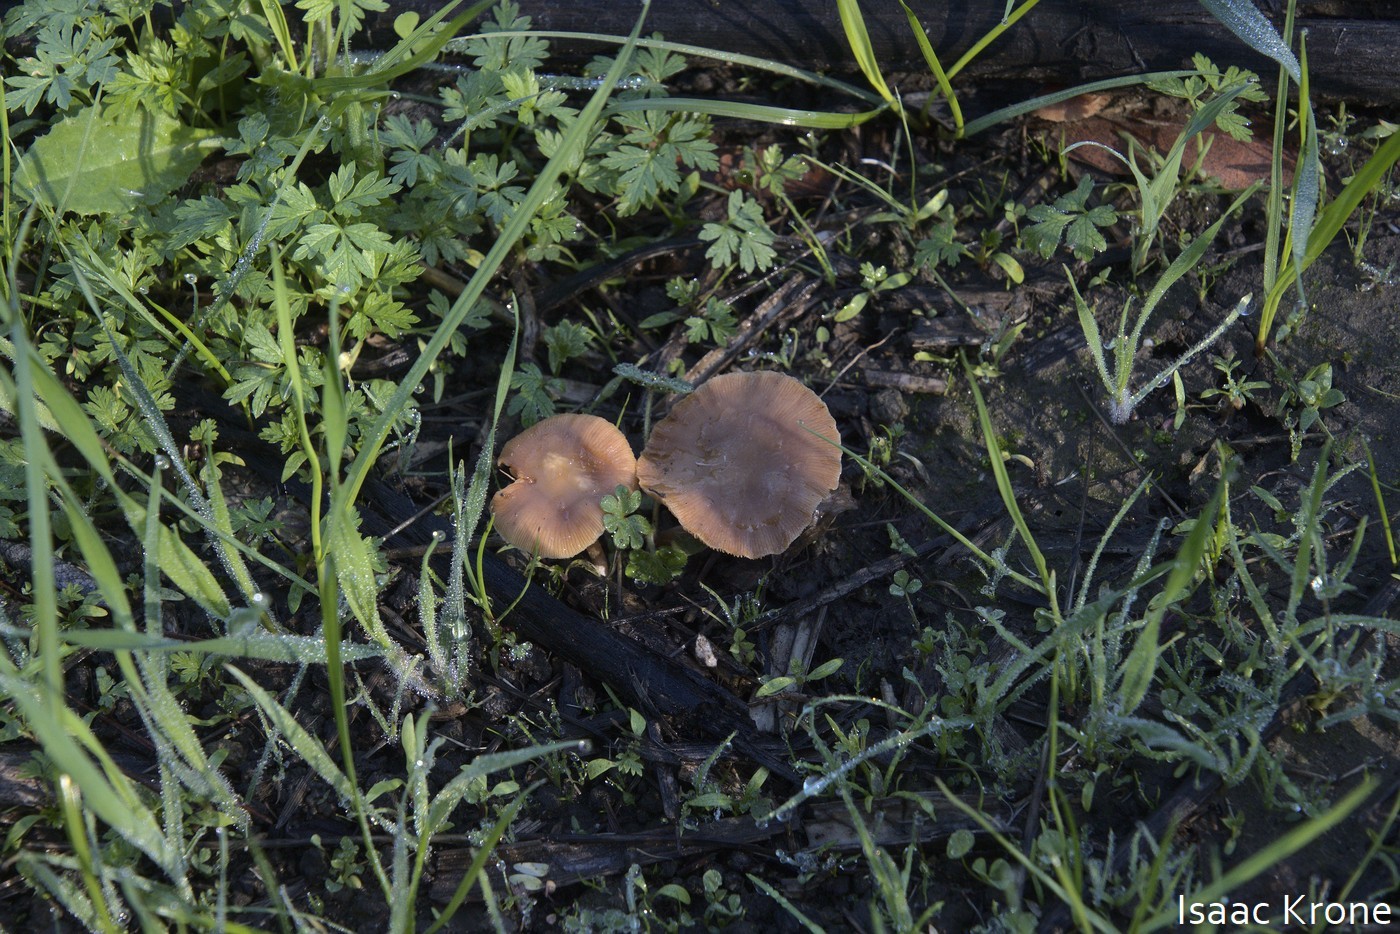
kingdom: Fungi
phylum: Basidiomycota
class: Agaricomycetes
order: Agaricales
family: Tubariaceae
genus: Tubaria
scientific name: Tubaria furfuracea
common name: Scurfy twiglet
